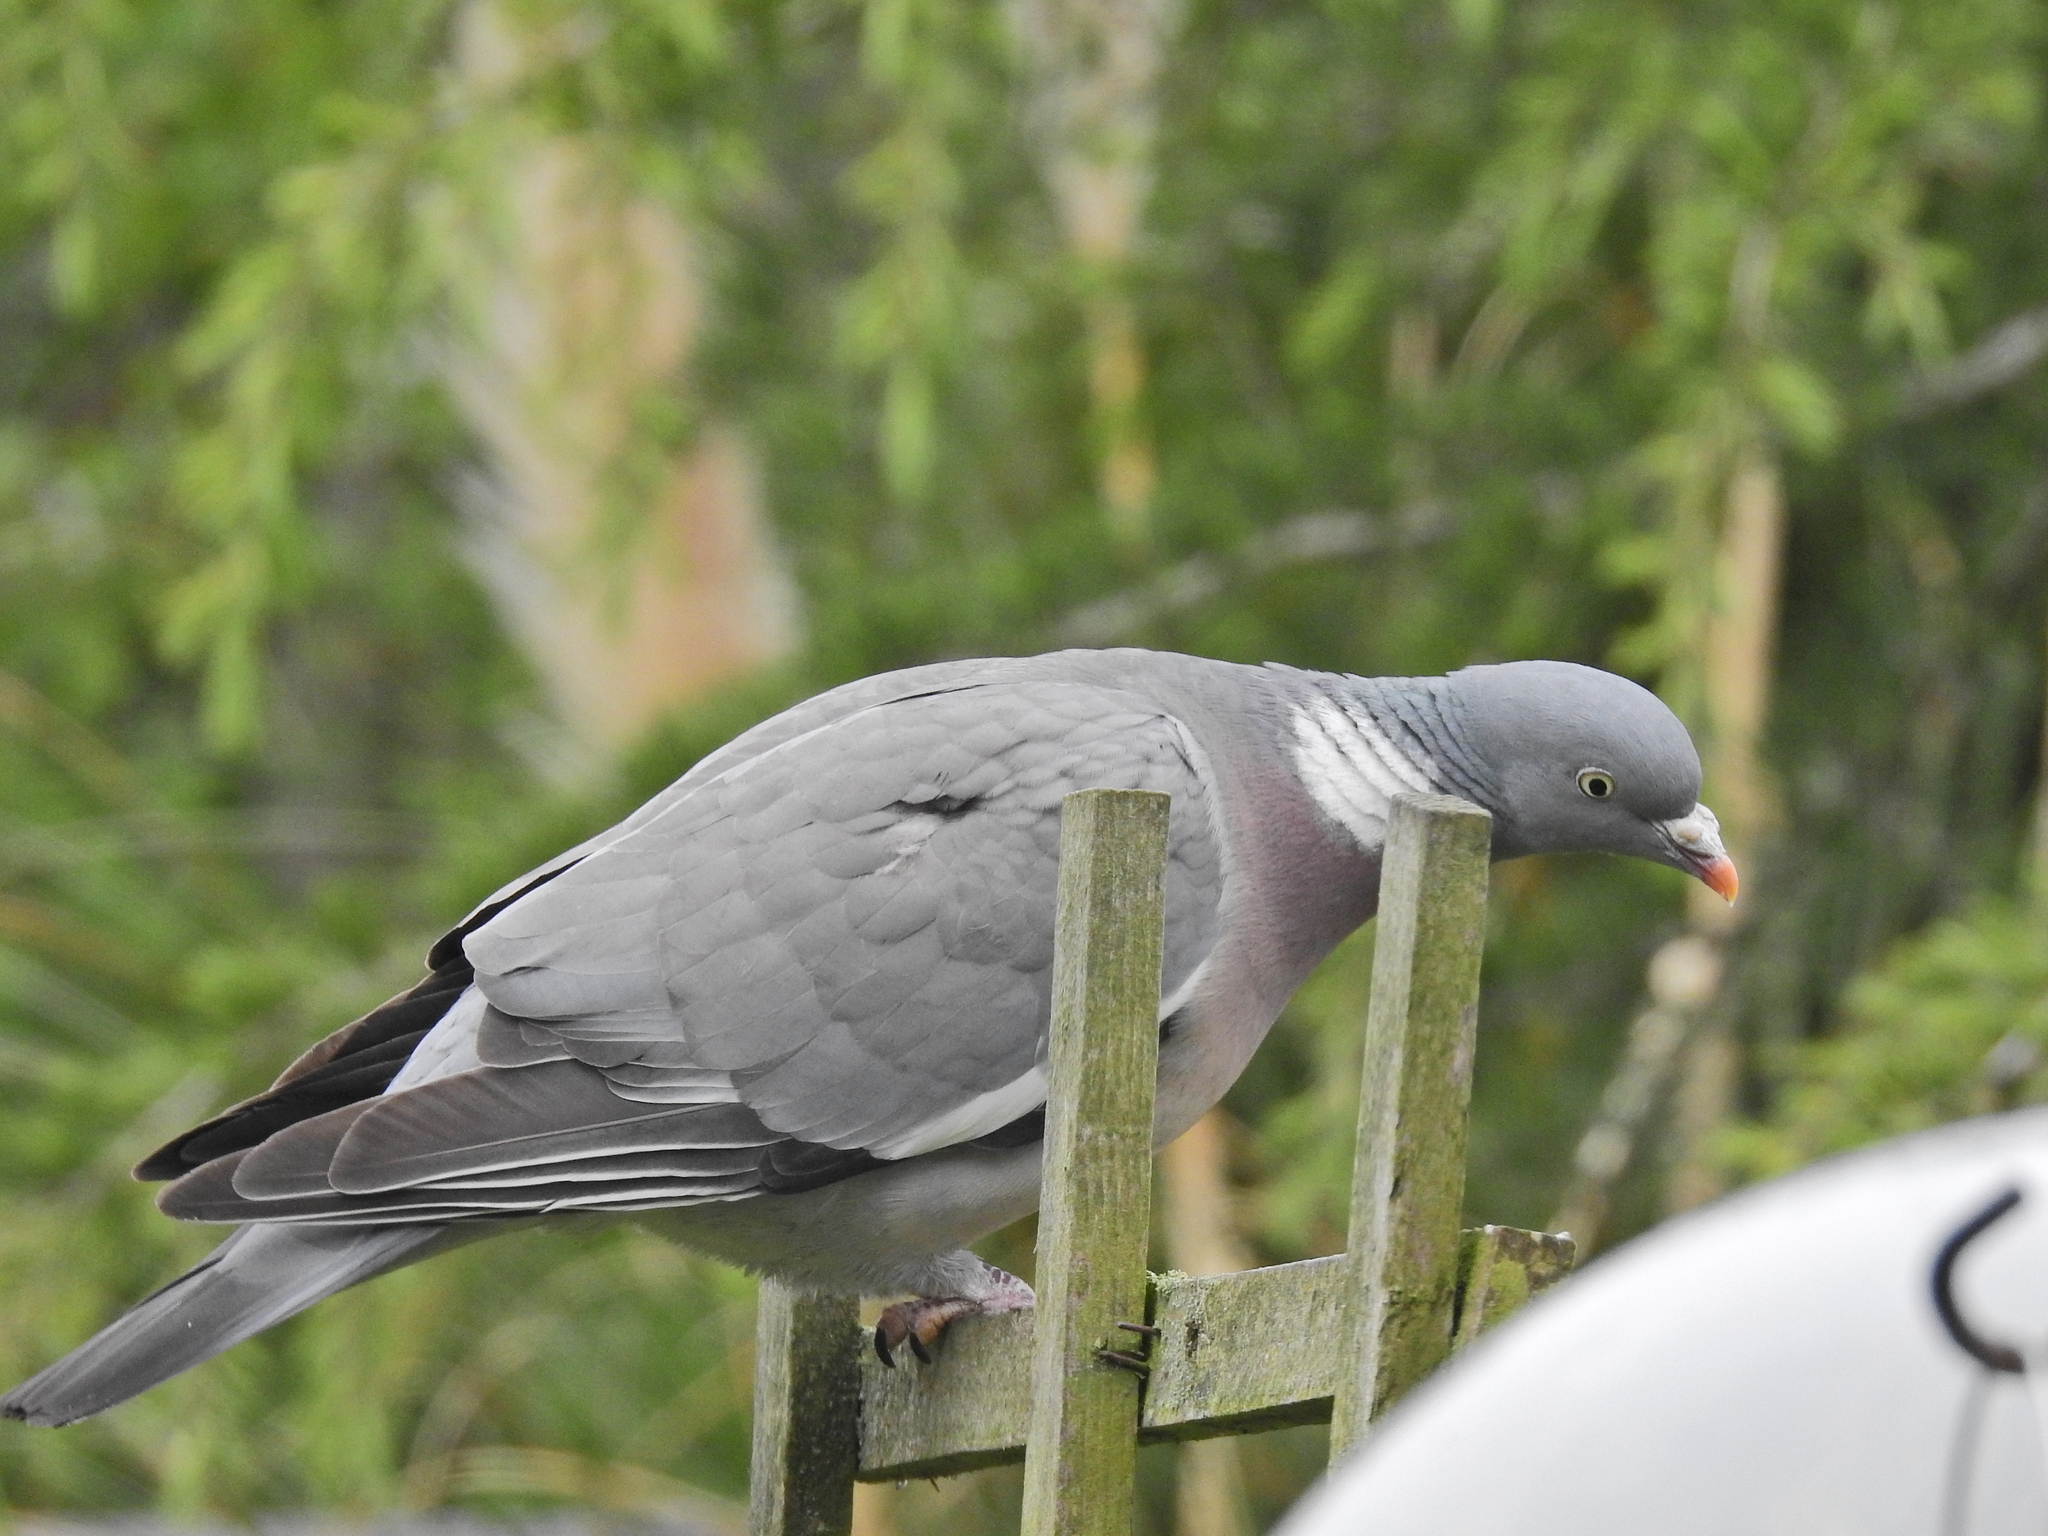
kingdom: Animalia
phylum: Chordata
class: Aves
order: Columbiformes
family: Columbidae
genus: Columba
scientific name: Columba palumbus
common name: Common wood pigeon
